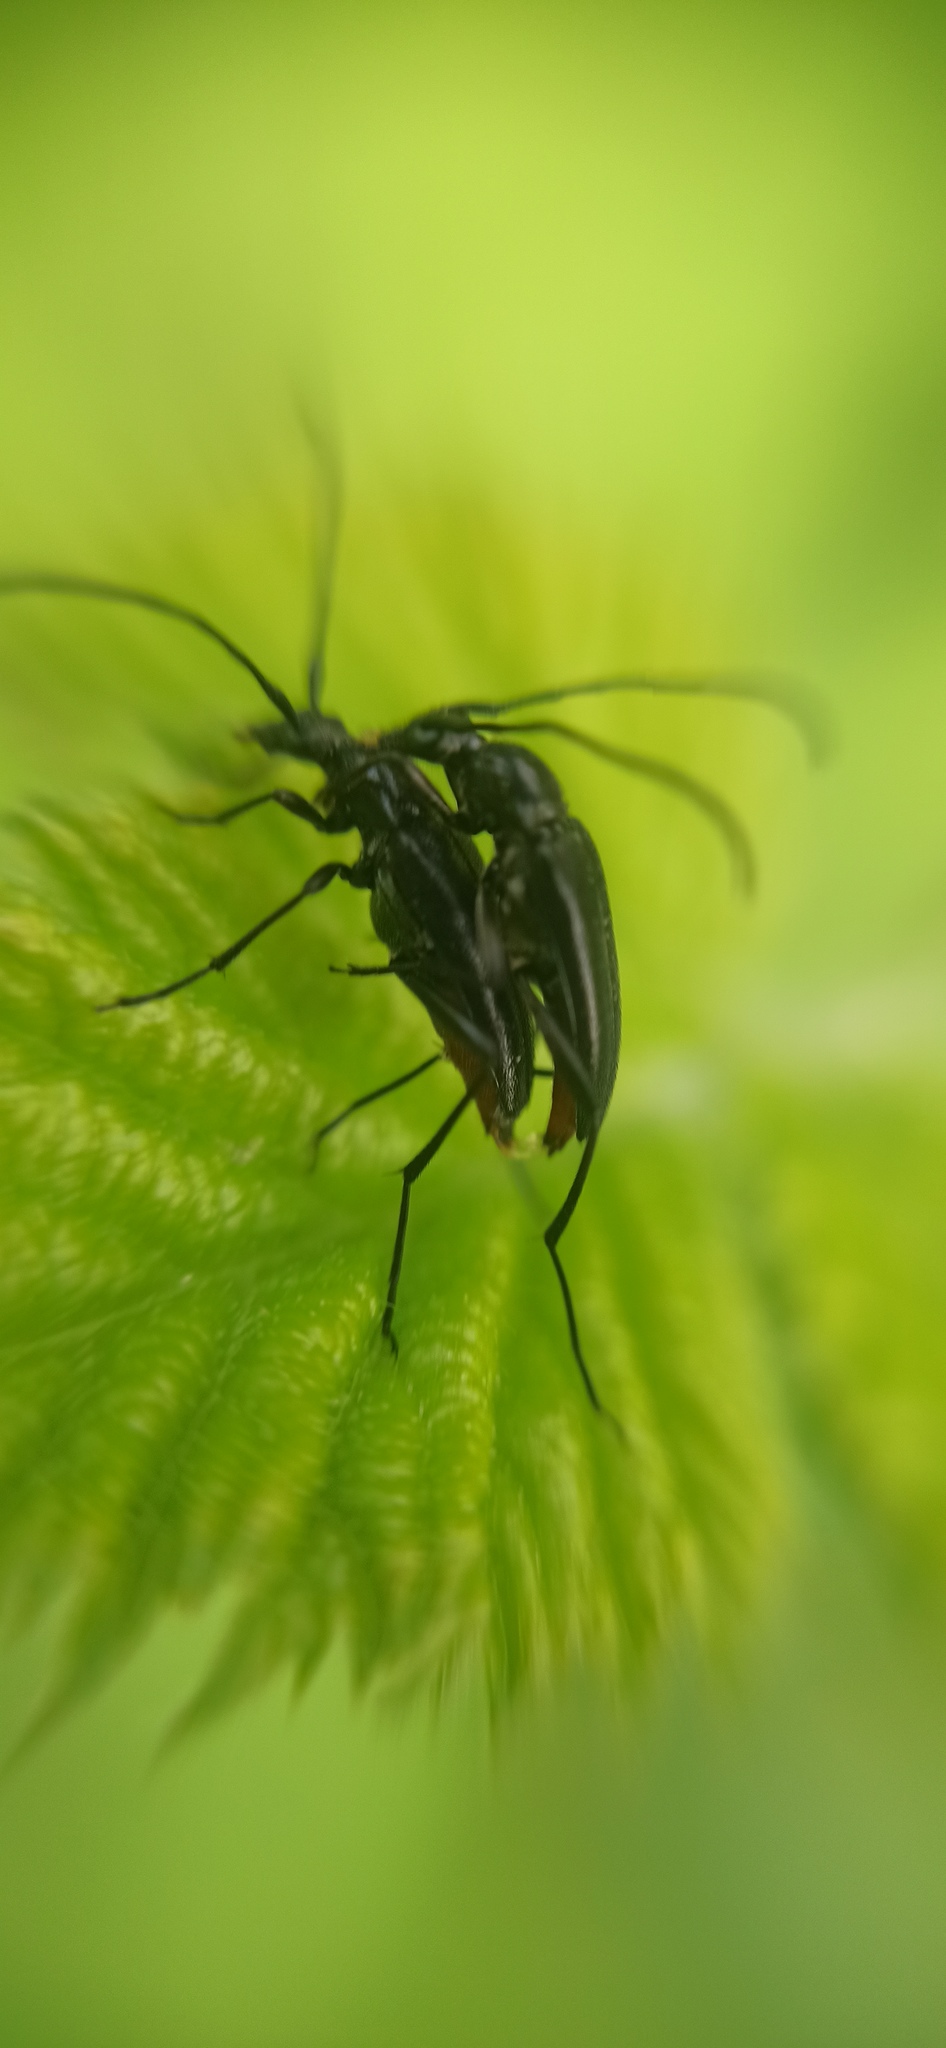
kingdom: Animalia
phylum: Arthropoda
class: Insecta
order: Coleoptera
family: Cerambycidae
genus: Stenurella
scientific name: Stenurella nigra
